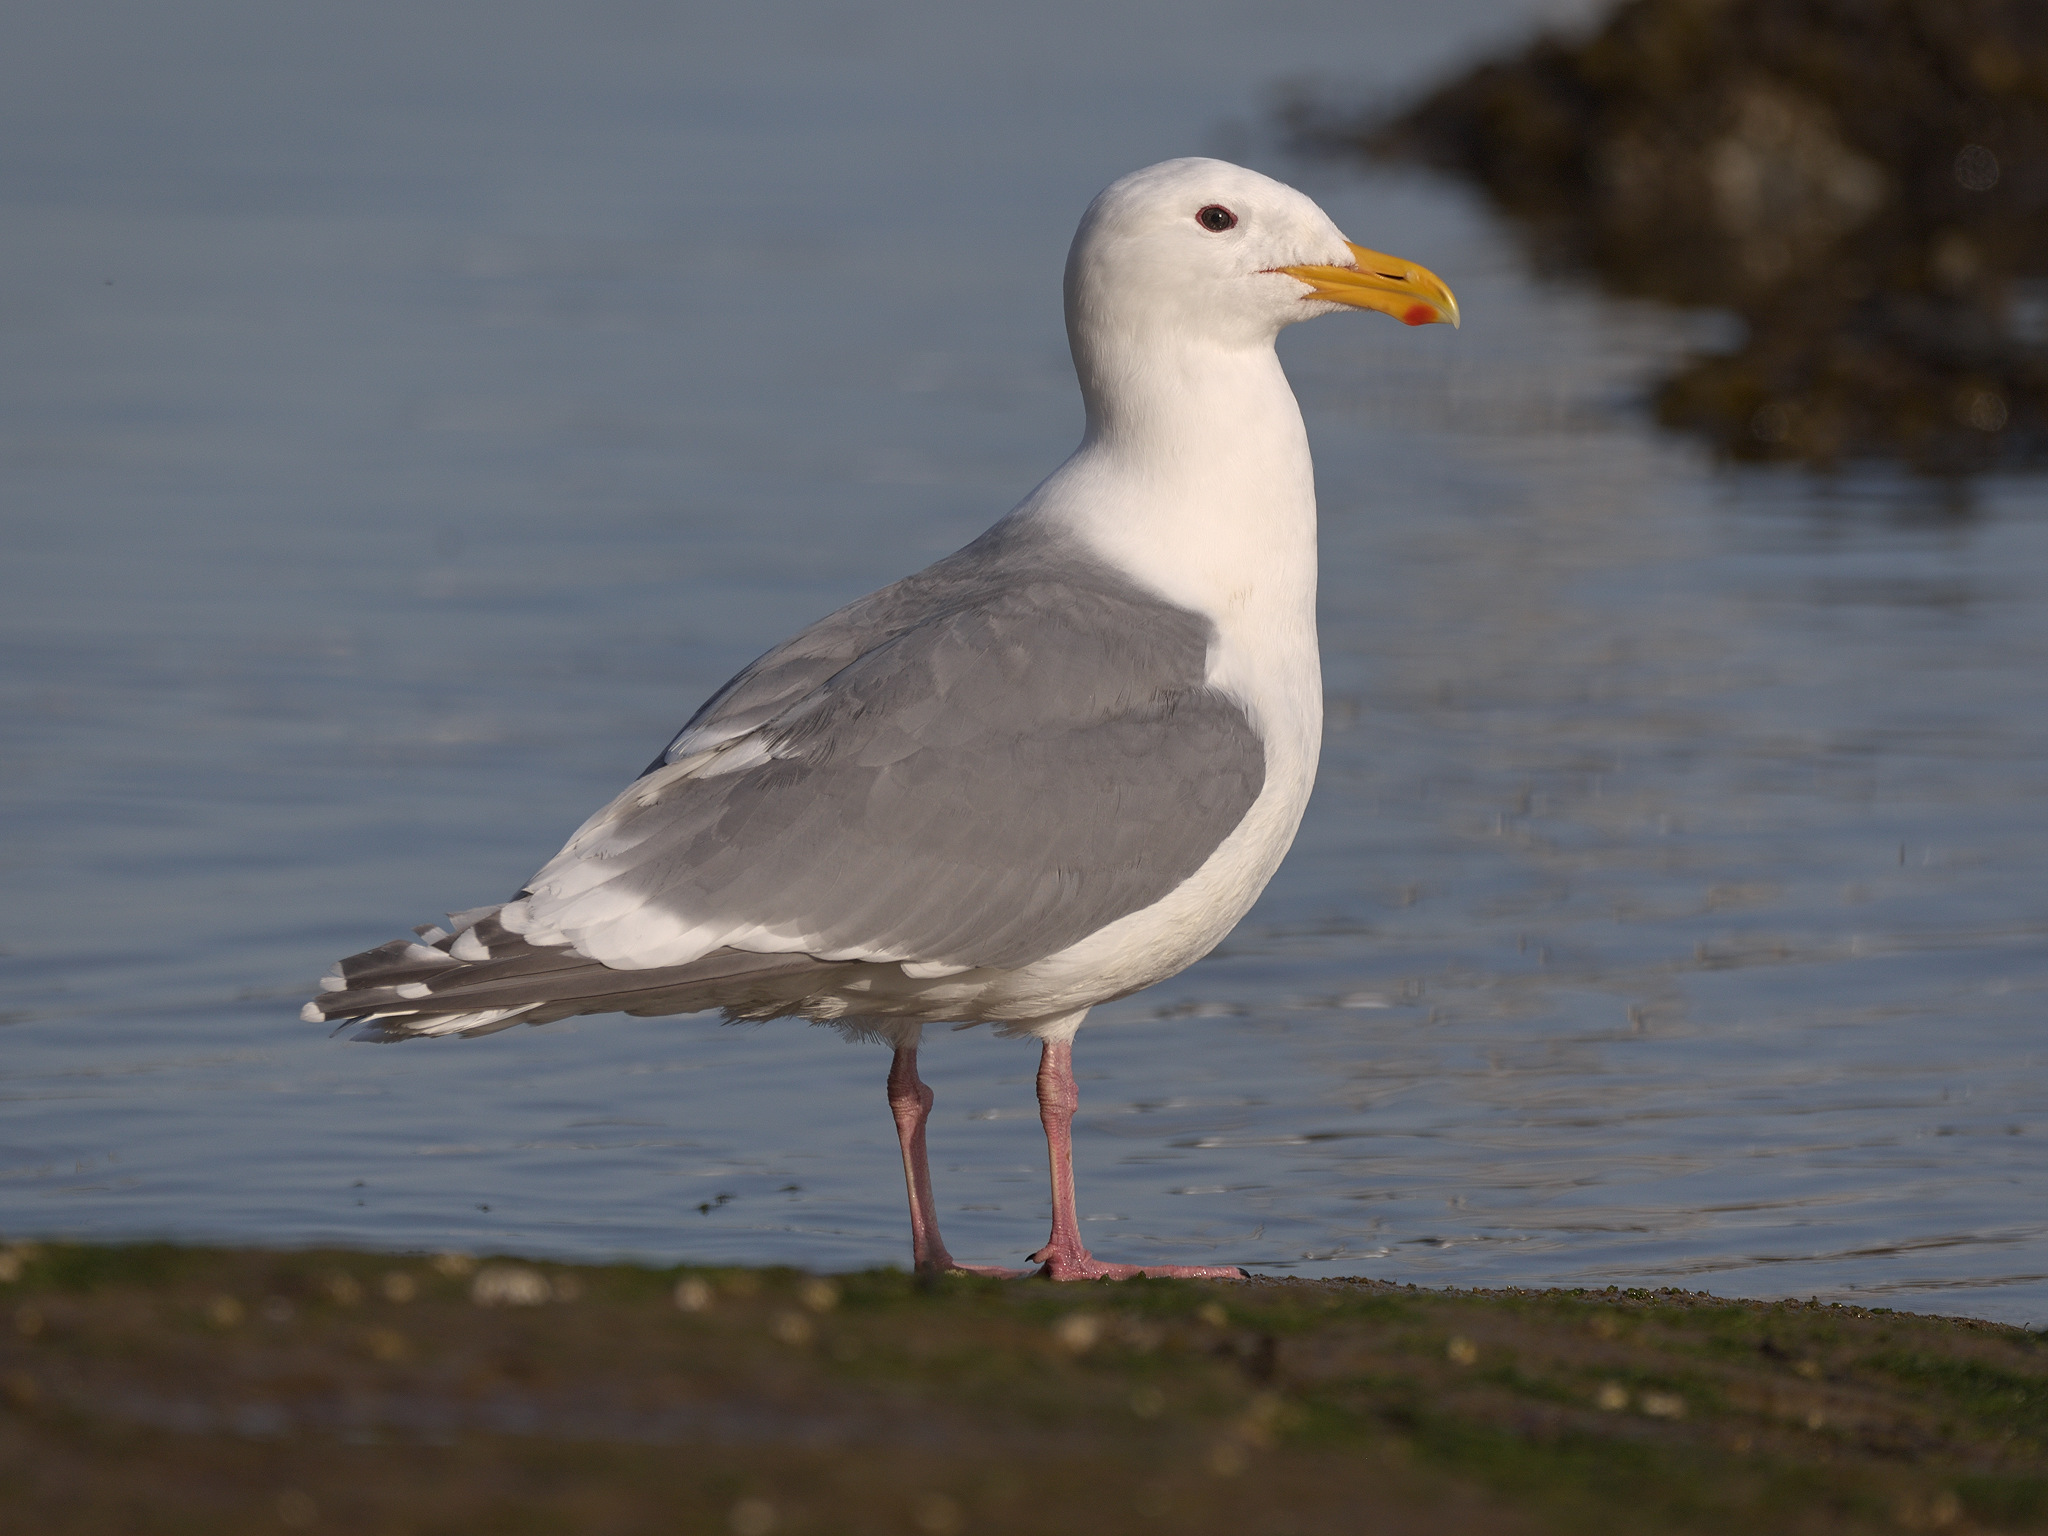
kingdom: Animalia
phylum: Chordata
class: Aves
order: Charadriiformes
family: Laridae
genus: Larus
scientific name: Larus
